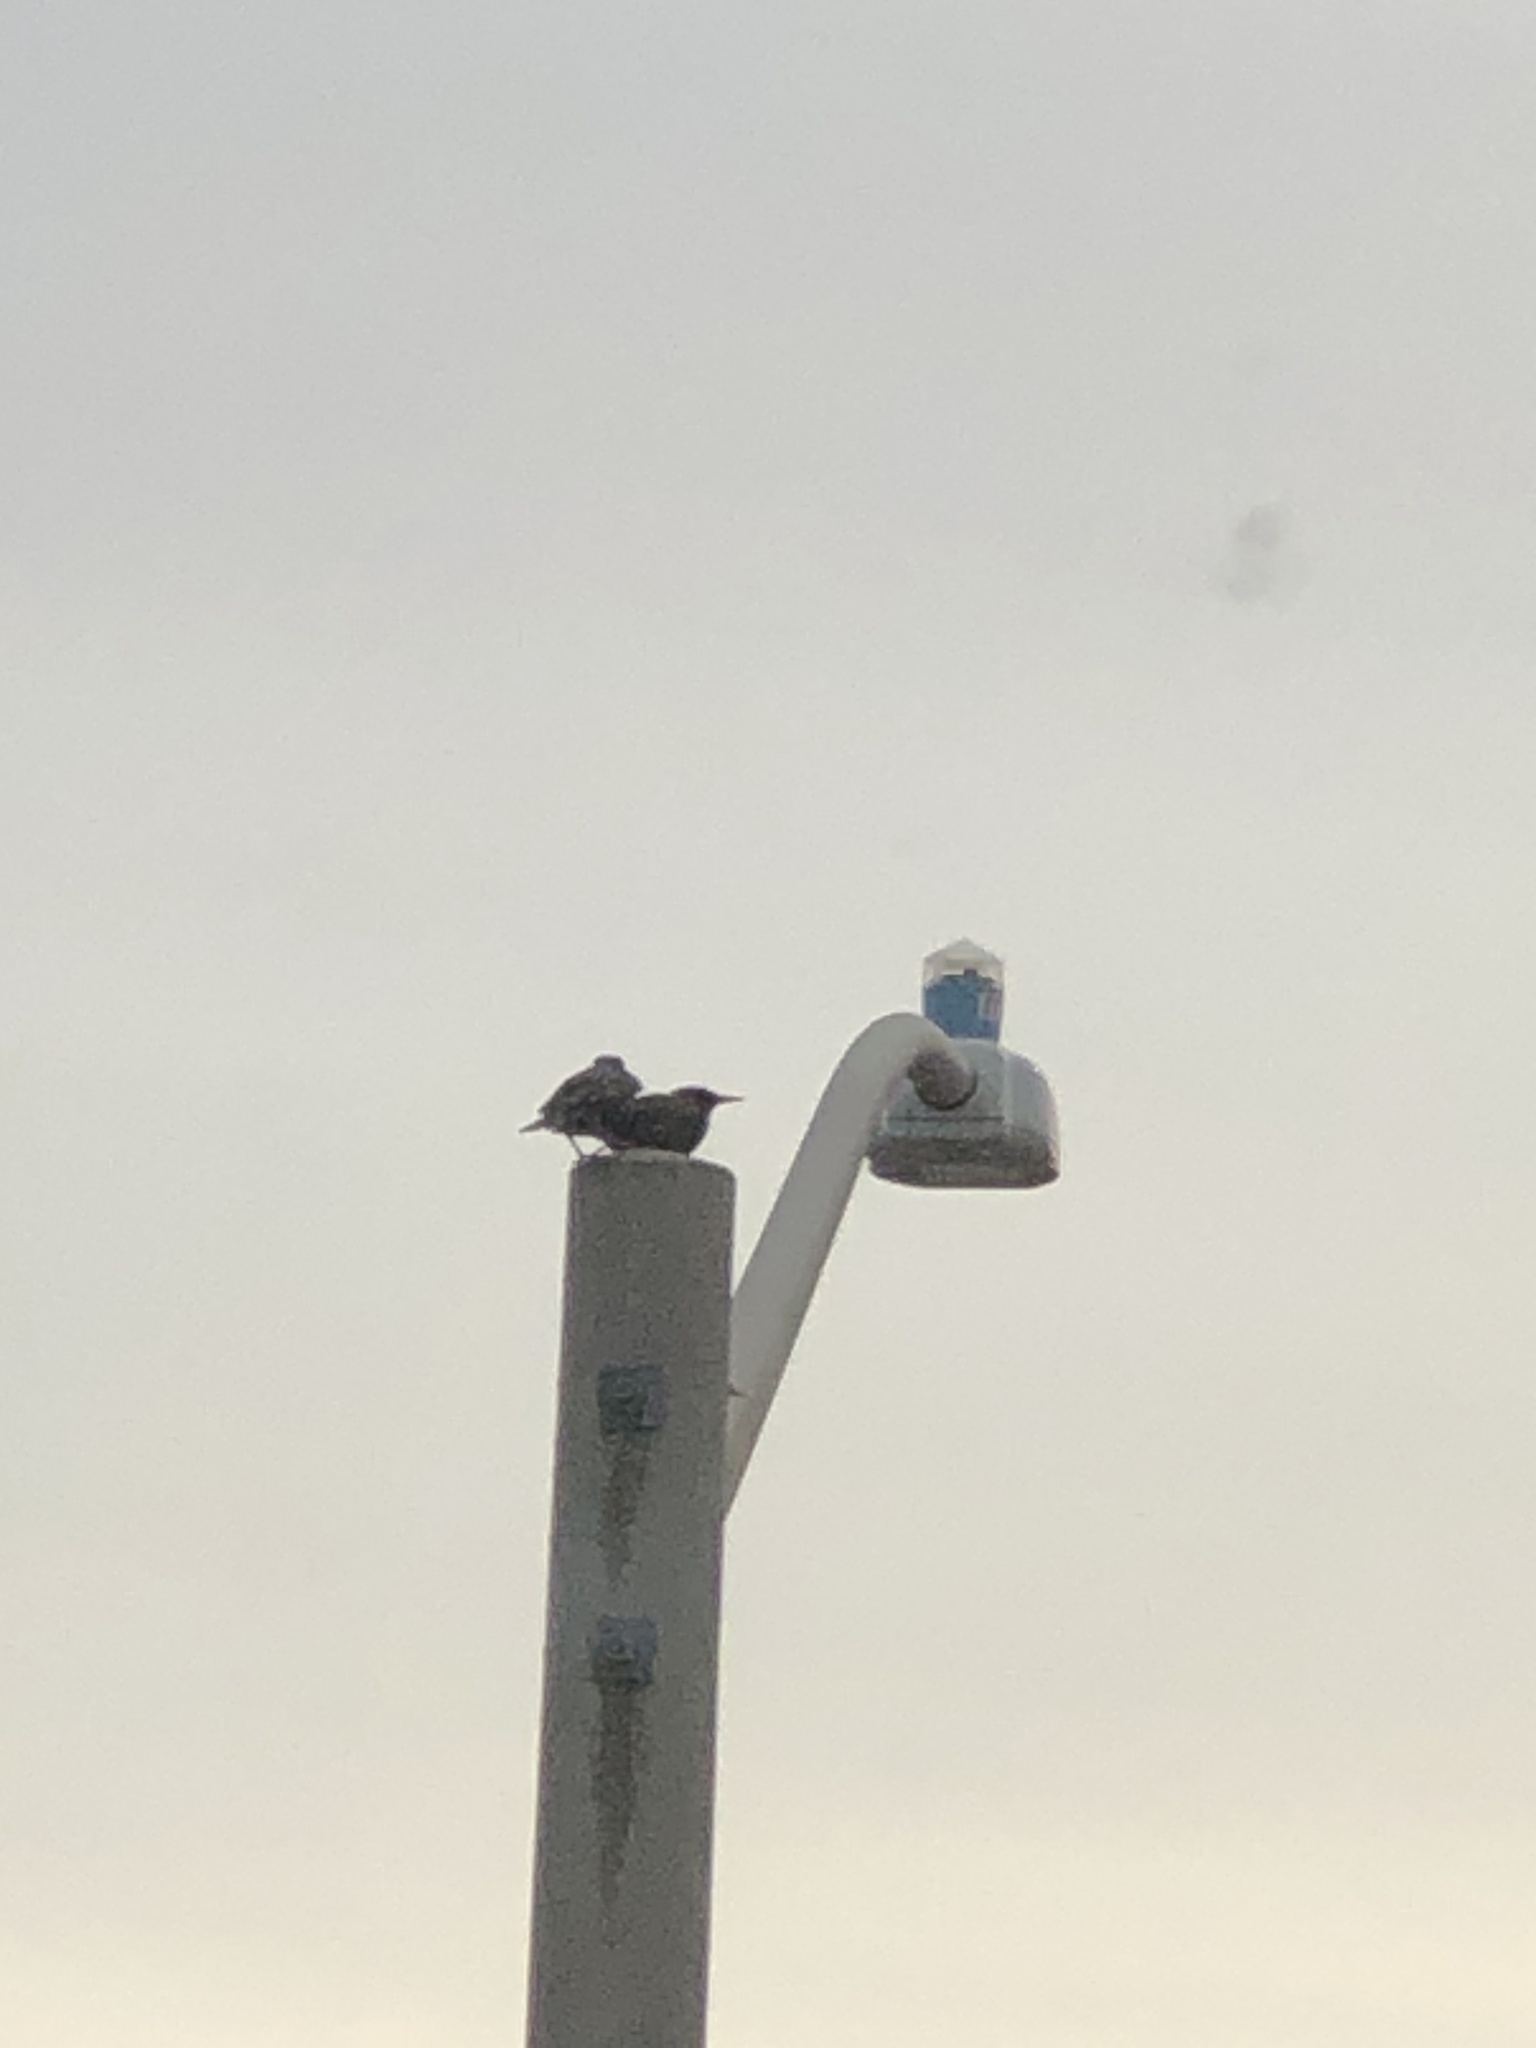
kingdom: Animalia
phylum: Chordata
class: Aves
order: Passeriformes
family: Sturnidae
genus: Sturnus
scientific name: Sturnus vulgaris
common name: Common starling
